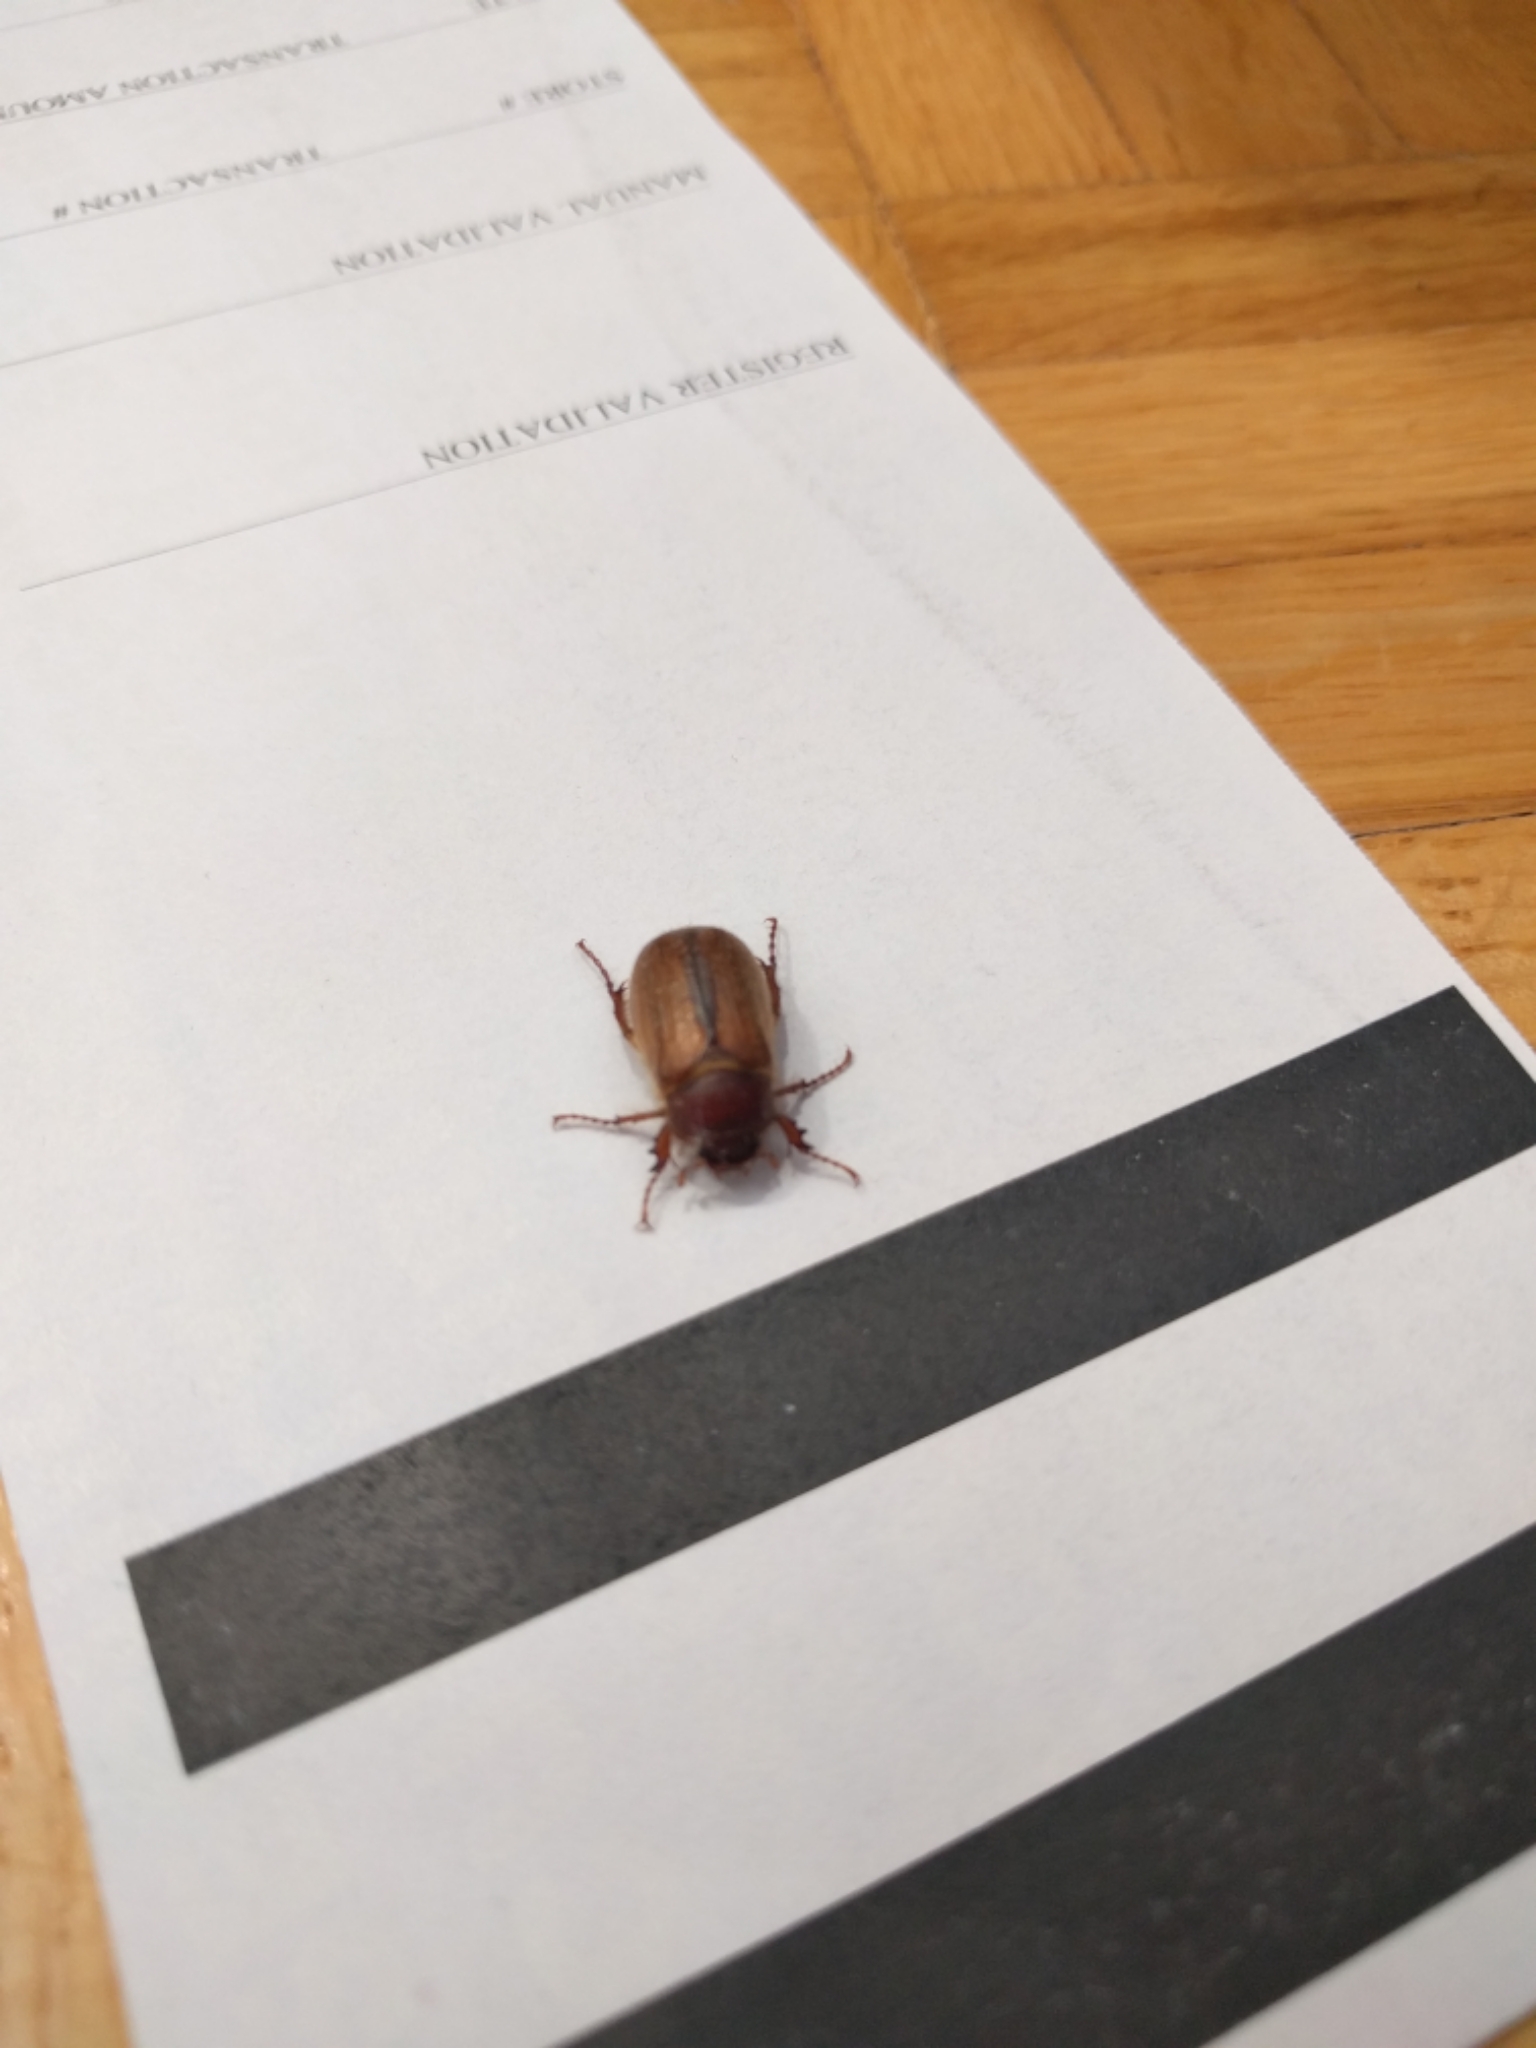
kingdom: Animalia
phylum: Arthropoda
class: Insecta
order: Coleoptera
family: Scarabaeidae
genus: Amphimallon
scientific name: Amphimallon majale
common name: European chafer
